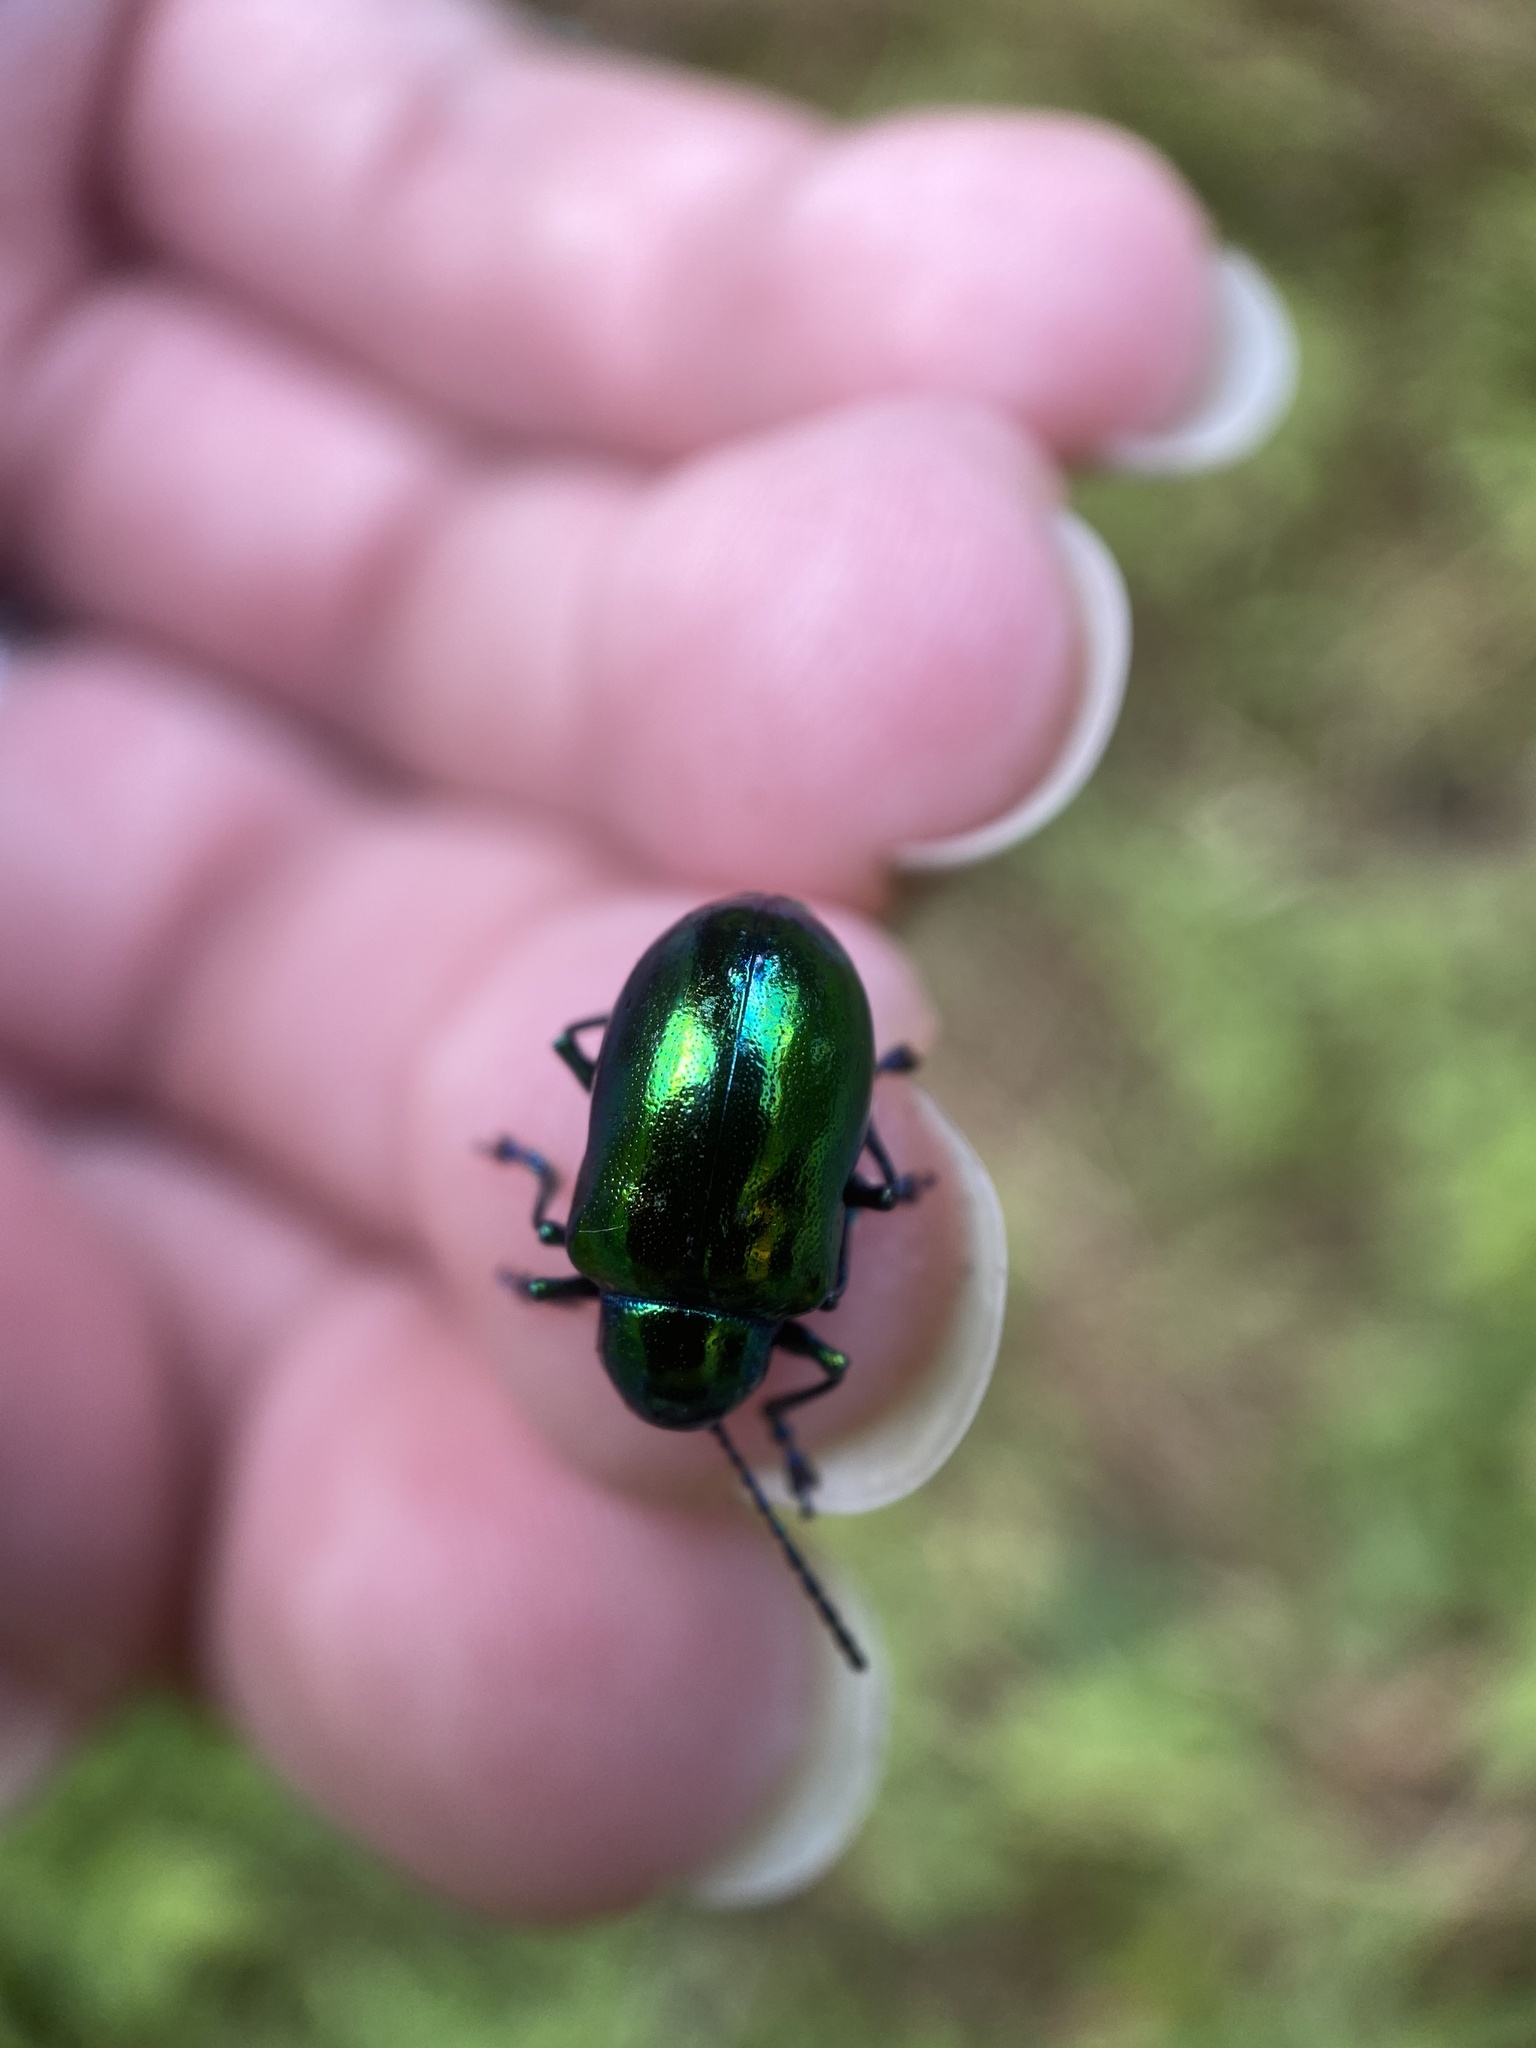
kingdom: Animalia
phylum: Arthropoda
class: Insecta
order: Coleoptera
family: Chrysomelidae
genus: Chrysochus
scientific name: Chrysochus auratus
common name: Dogbane leaf beetle
